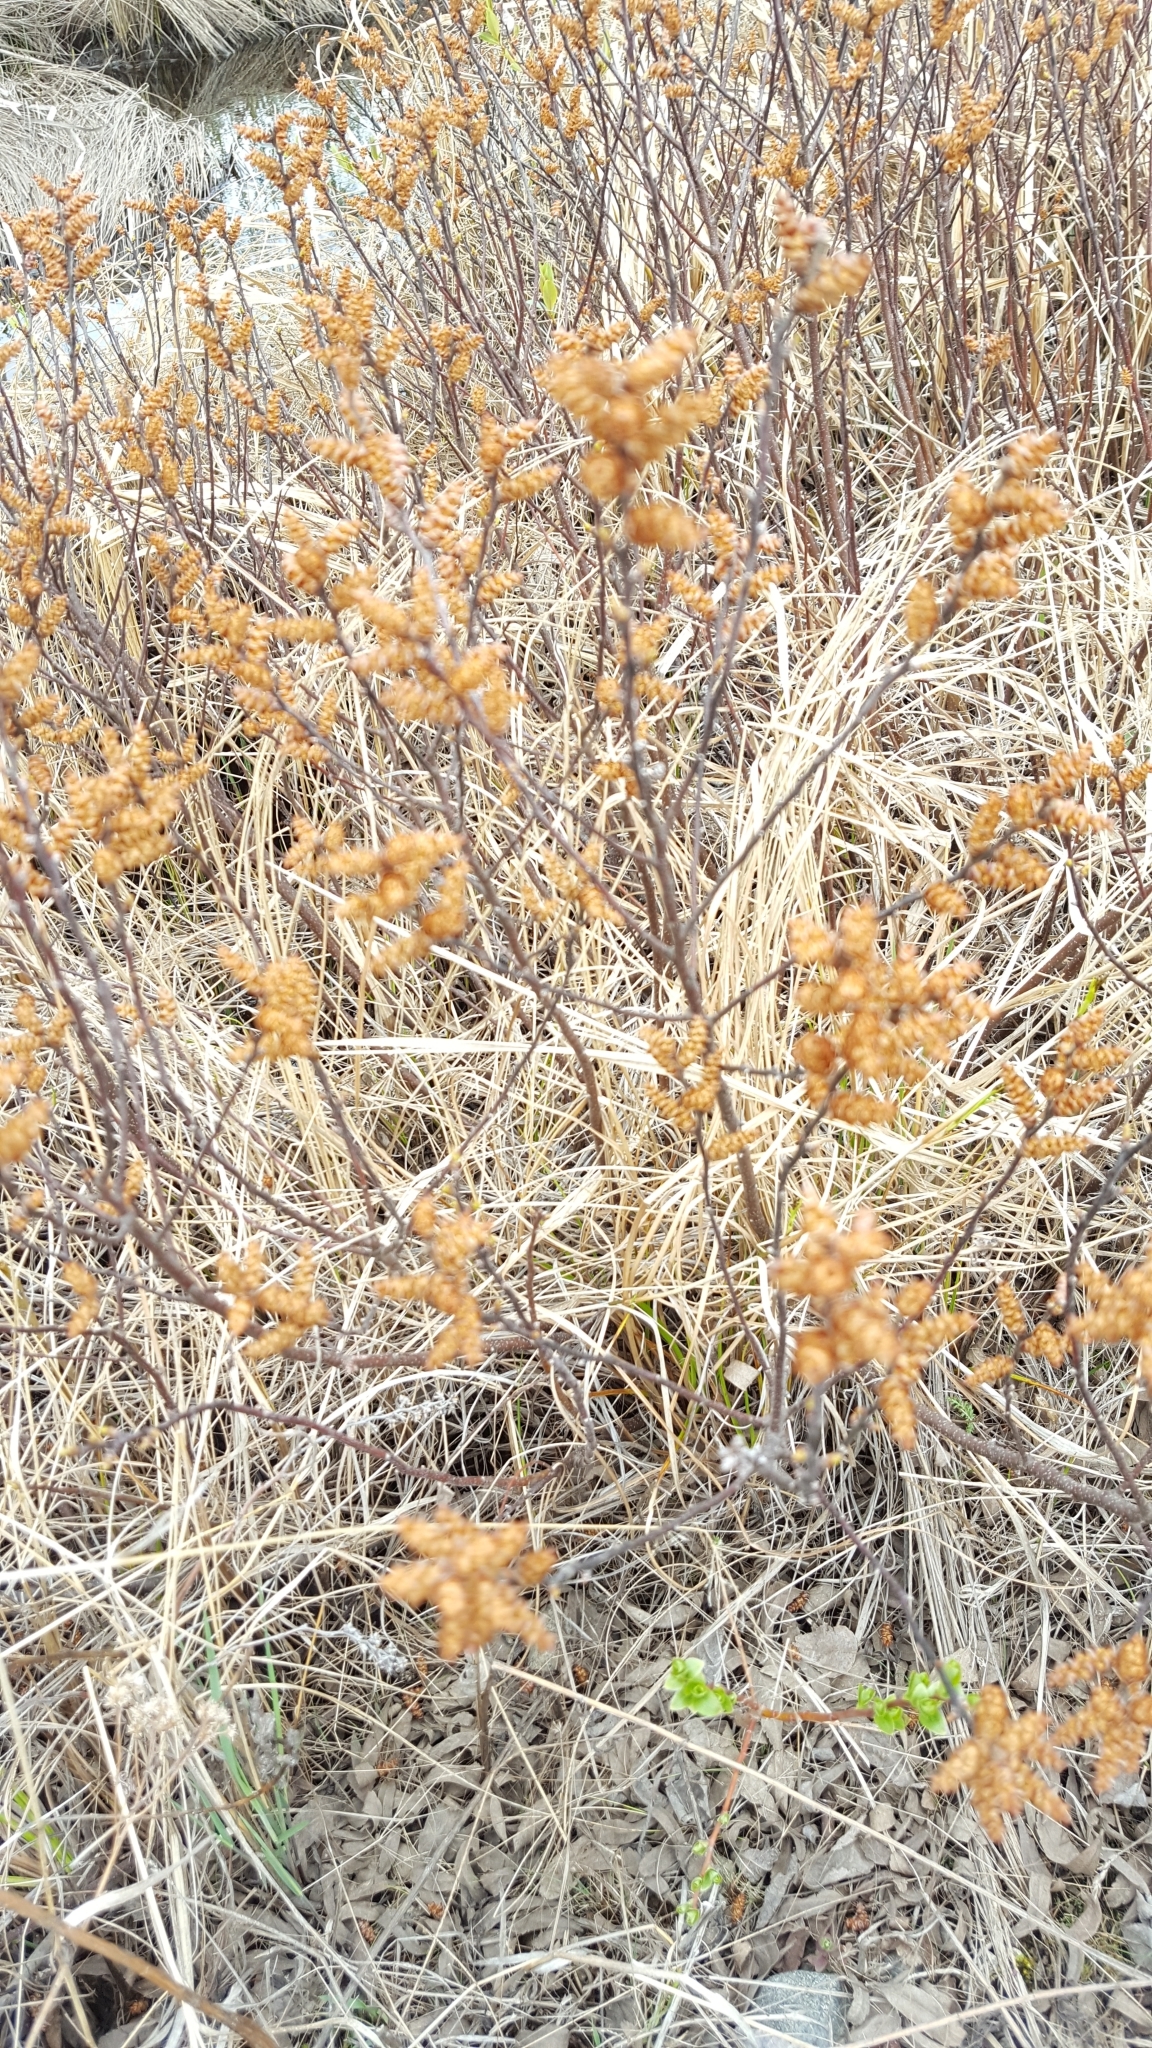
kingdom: Plantae
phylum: Tracheophyta
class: Magnoliopsida
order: Fagales
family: Myricaceae
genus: Myrica
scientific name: Myrica gale
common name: Sweet gale
